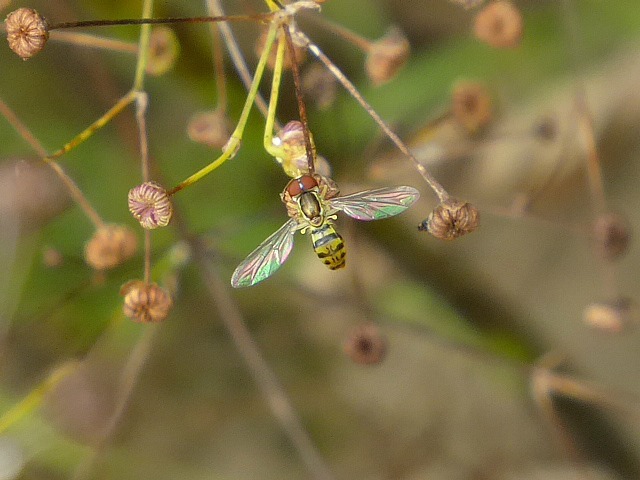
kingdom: Animalia
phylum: Arthropoda
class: Insecta
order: Diptera
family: Syrphidae
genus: Toxomerus
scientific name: Toxomerus geminatus
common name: Eastern calligrapher
